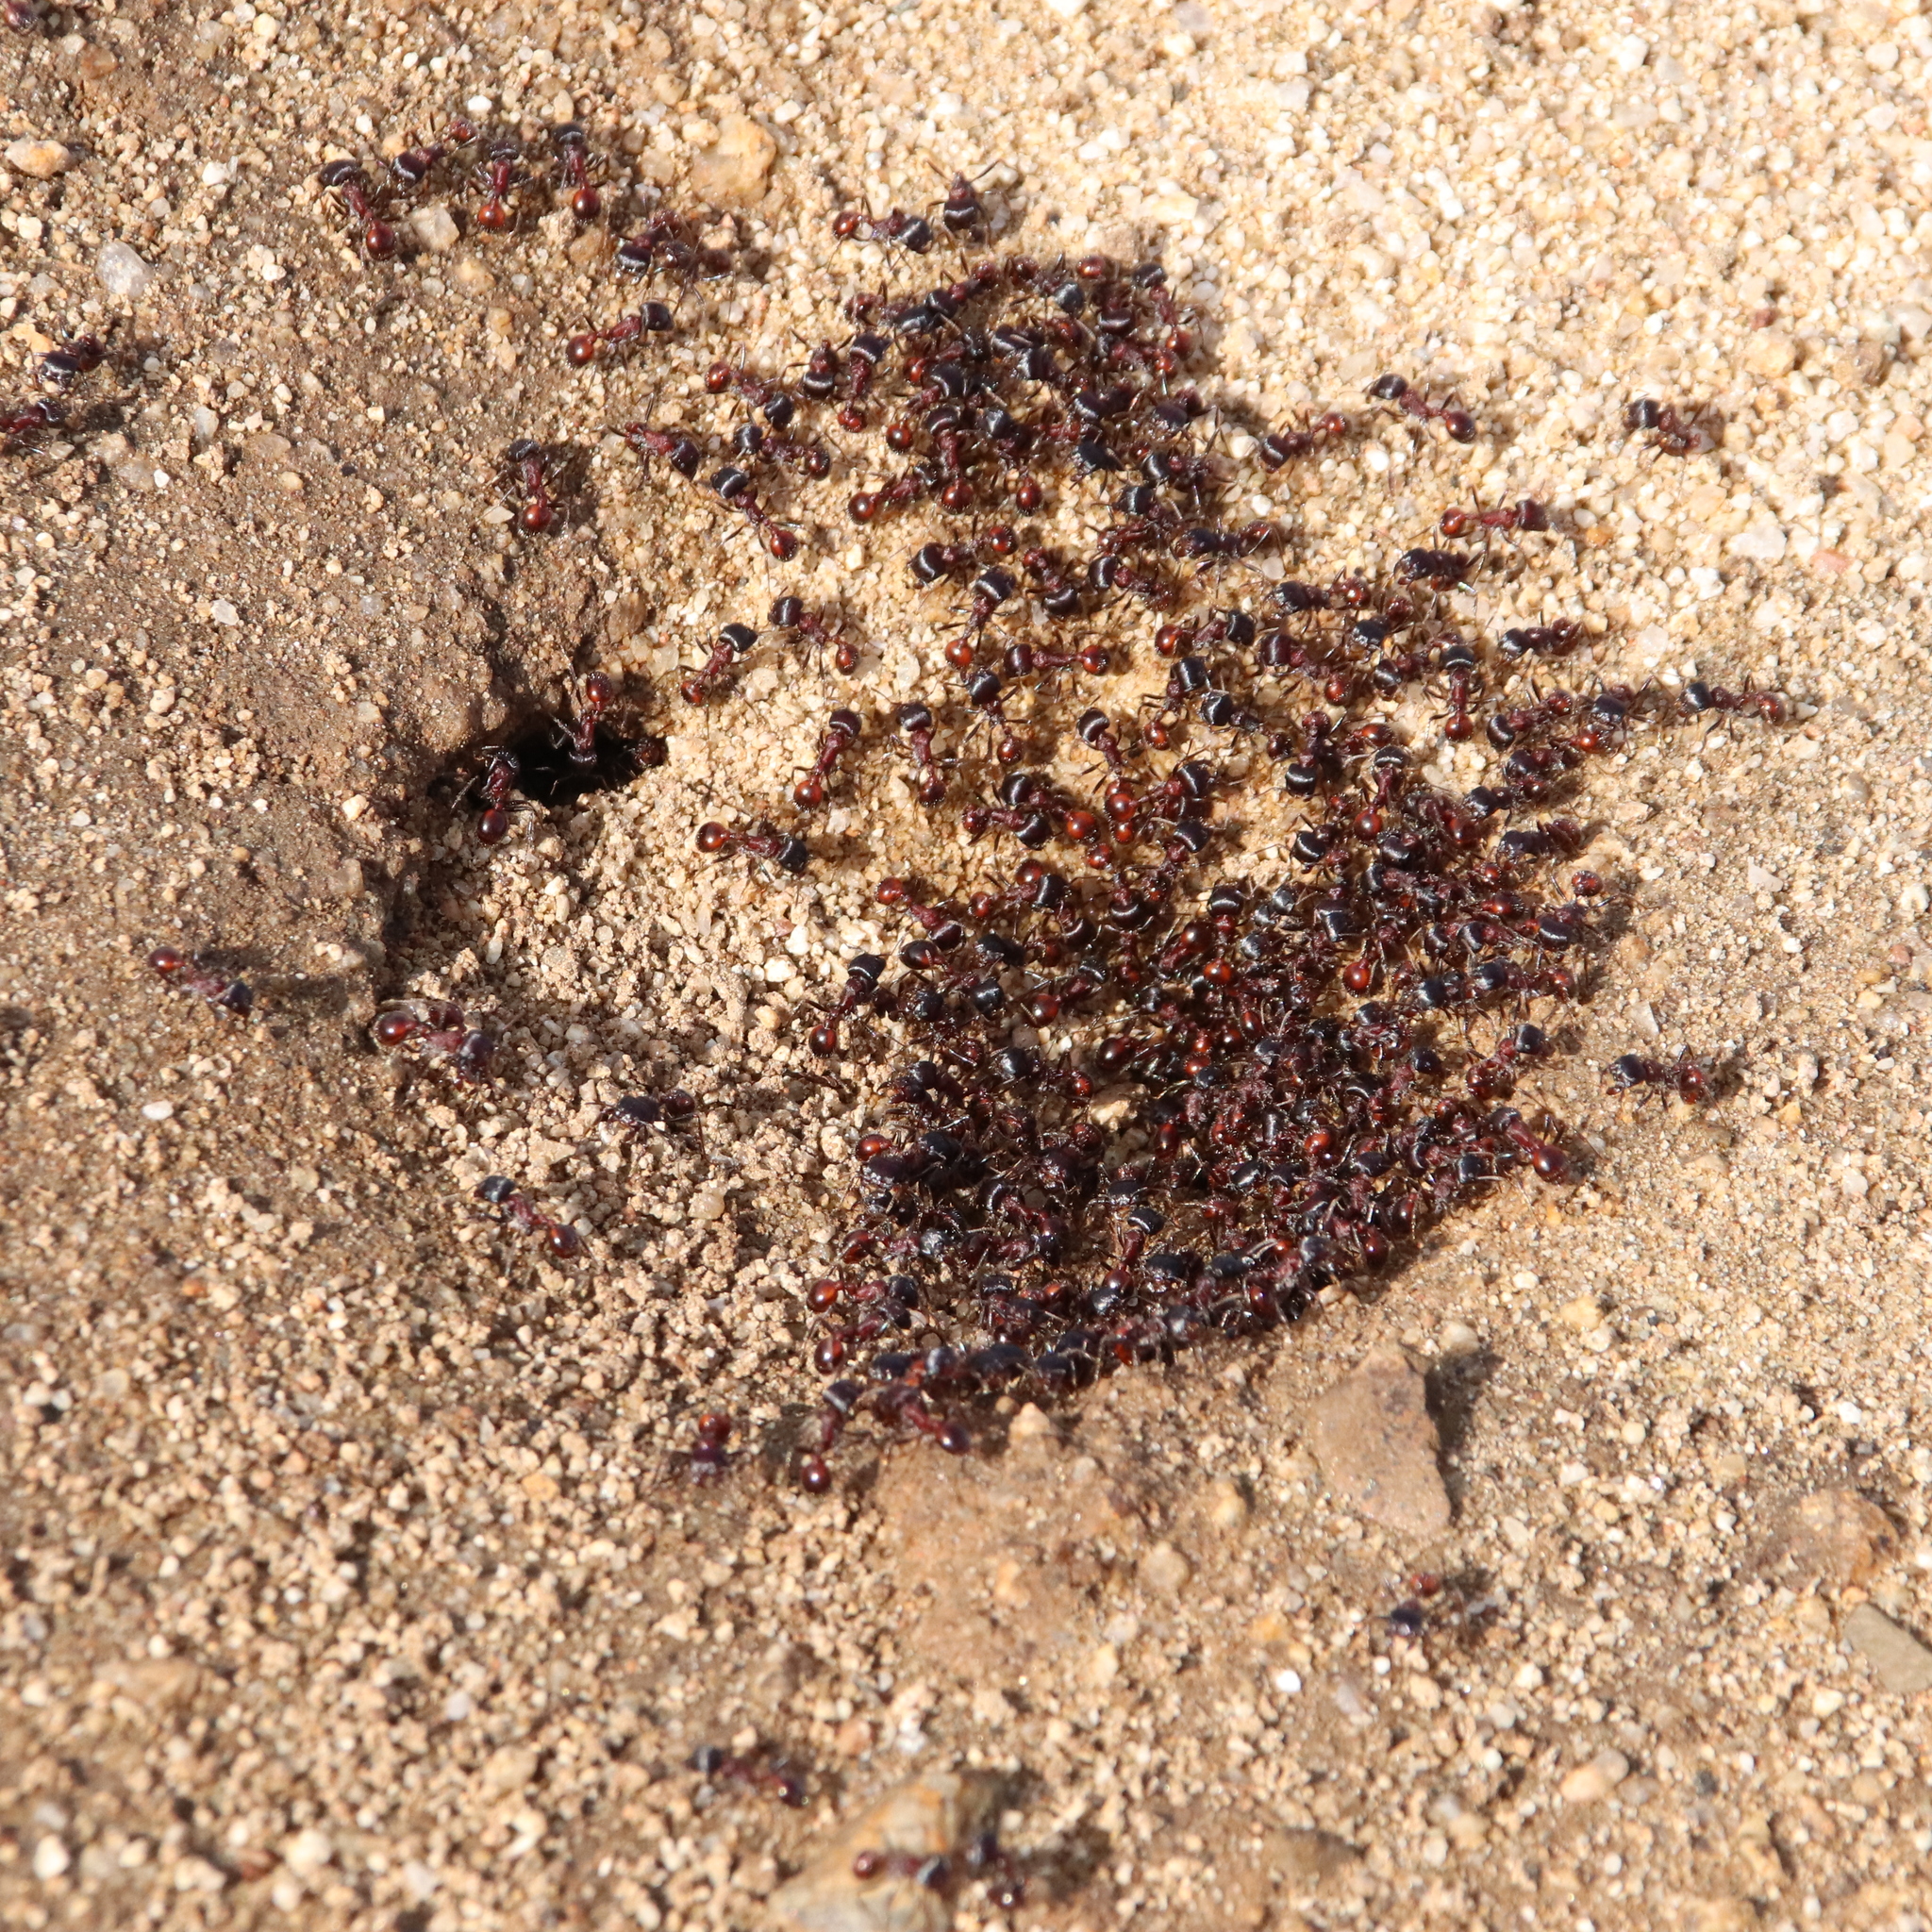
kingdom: Animalia
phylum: Arthropoda
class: Insecta
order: Hymenoptera
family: Formicidae
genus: Pogonomyrmex
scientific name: Pogonomyrmex rugosus
